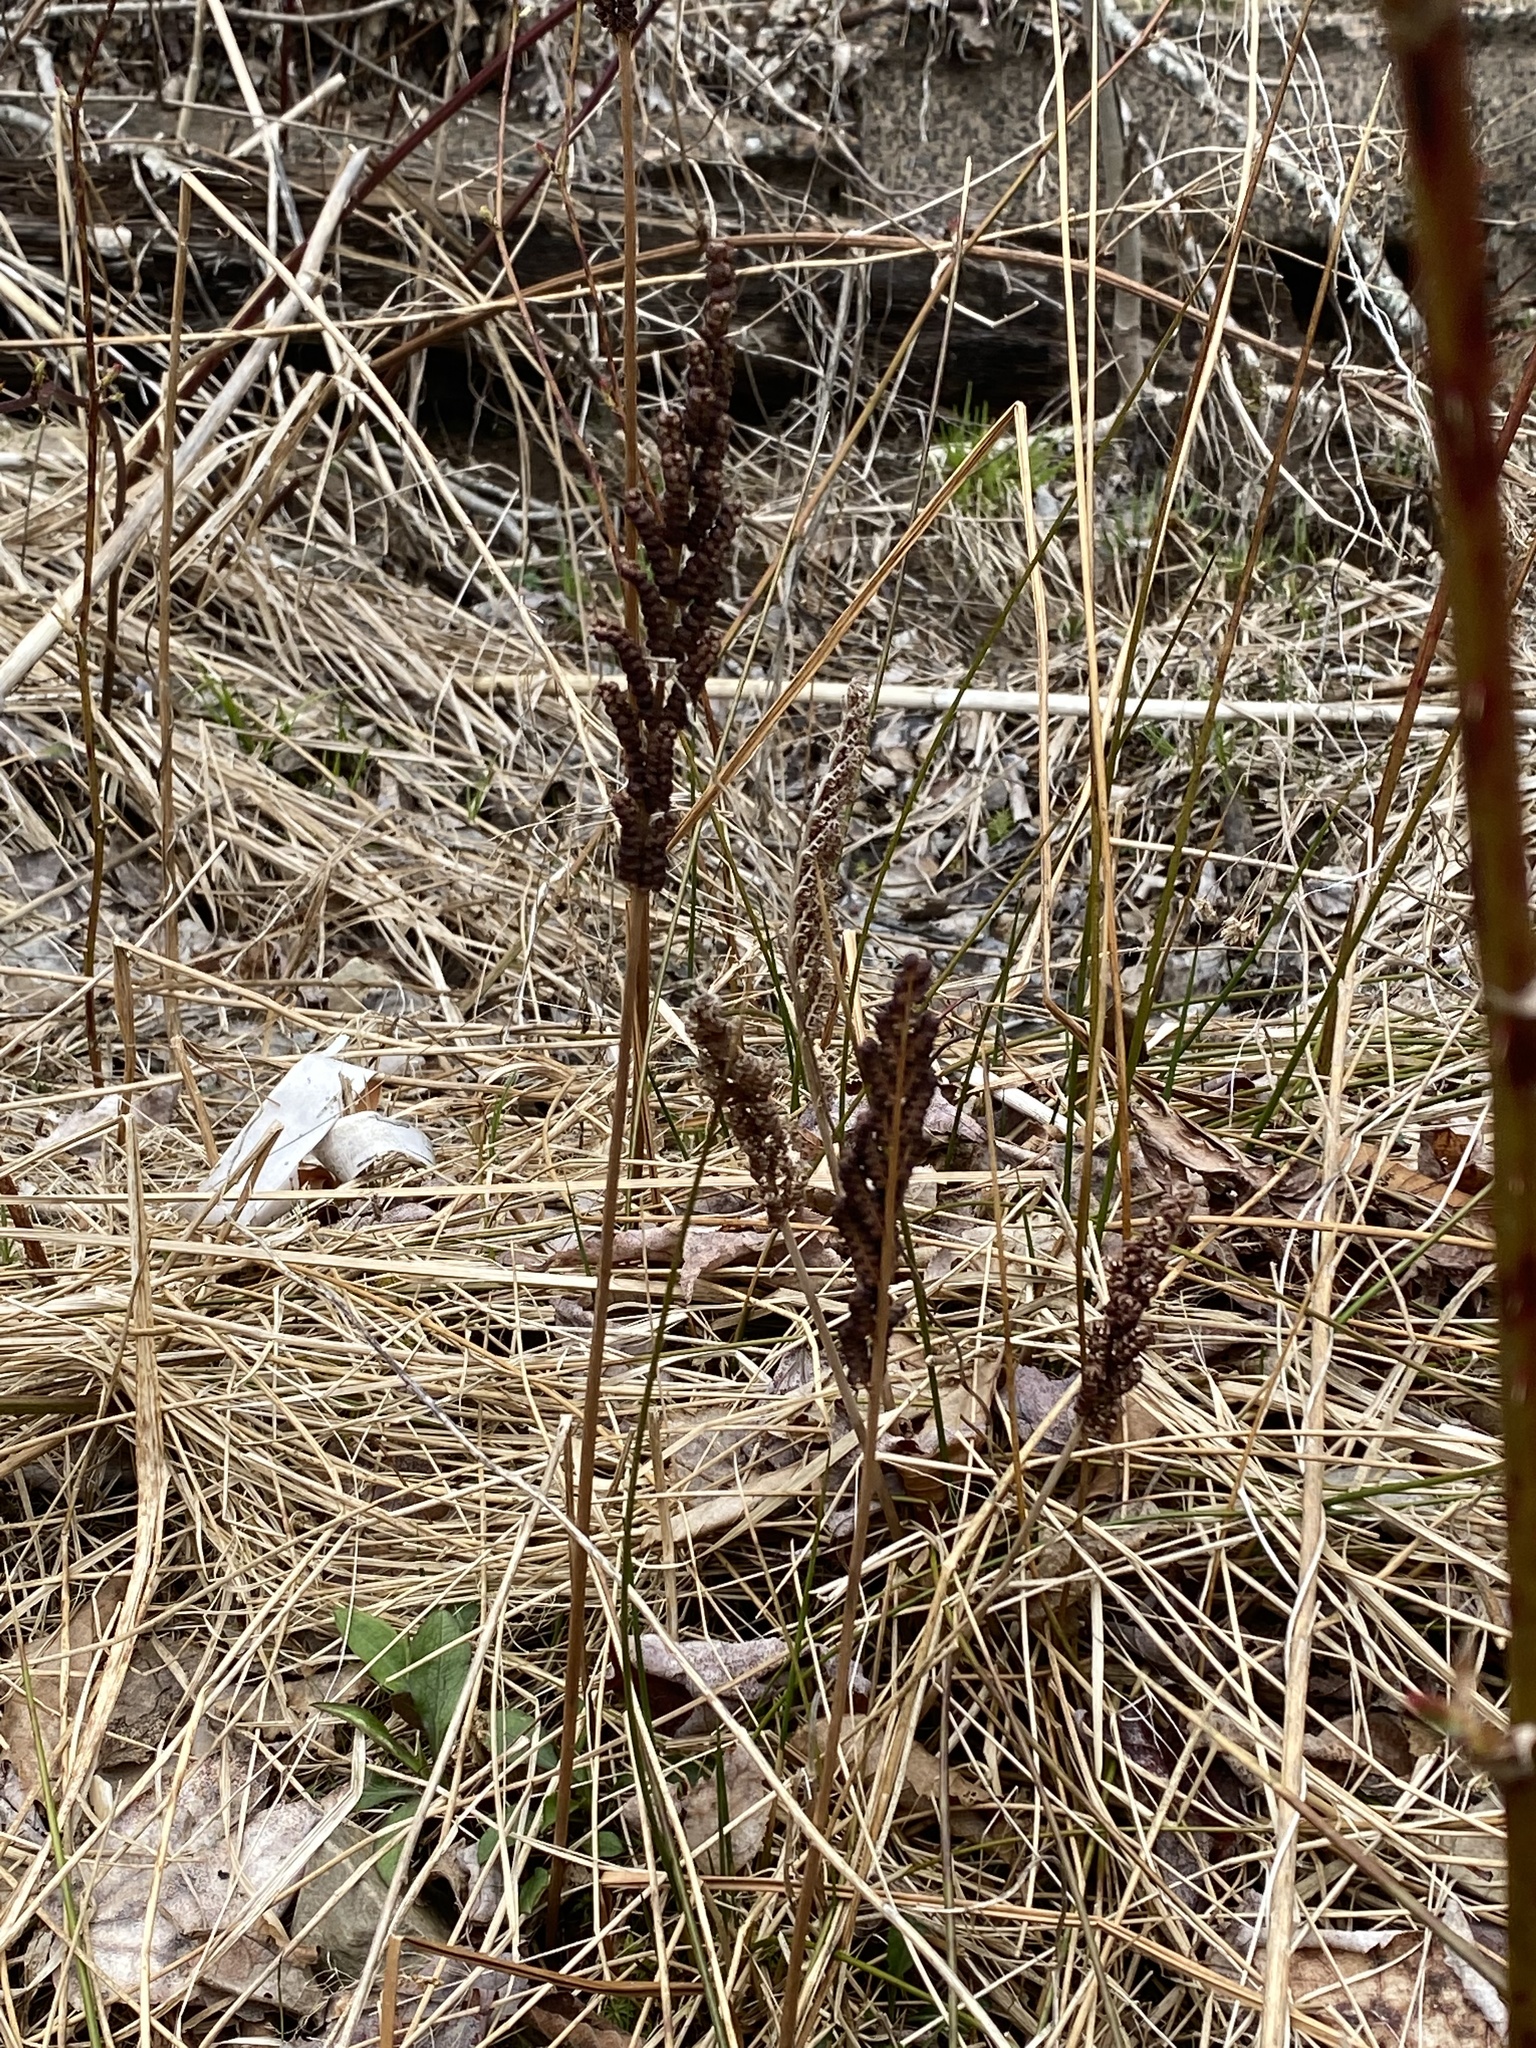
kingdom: Plantae
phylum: Tracheophyta
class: Polypodiopsida
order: Polypodiales
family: Onocleaceae
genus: Onoclea
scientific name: Onoclea sensibilis
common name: Sensitive fern
